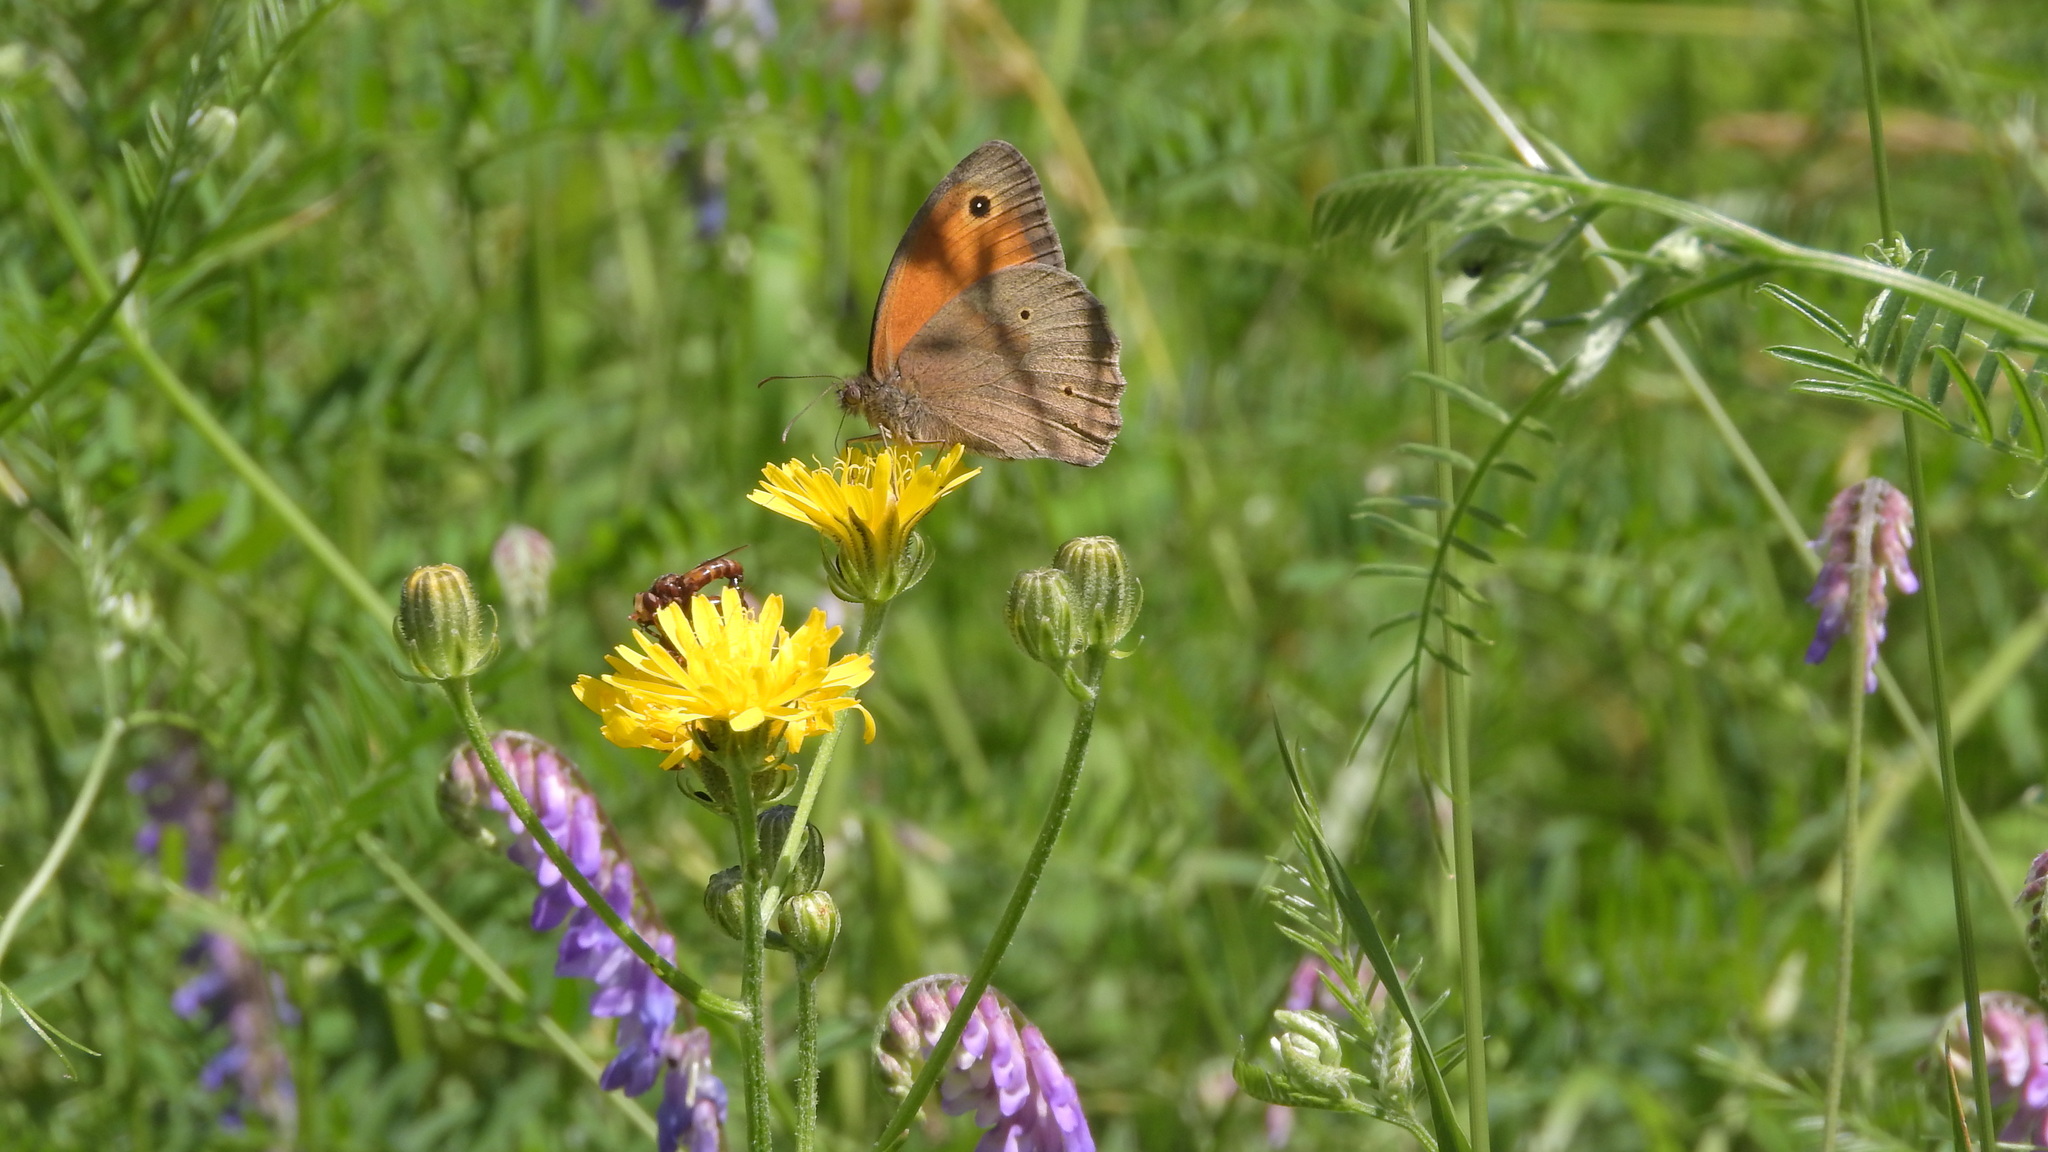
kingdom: Animalia
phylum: Arthropoda
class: Insecta
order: Lepidoptera
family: Nymphalidae
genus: Maniola
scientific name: Maniola jurtina
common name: Meadow brown
